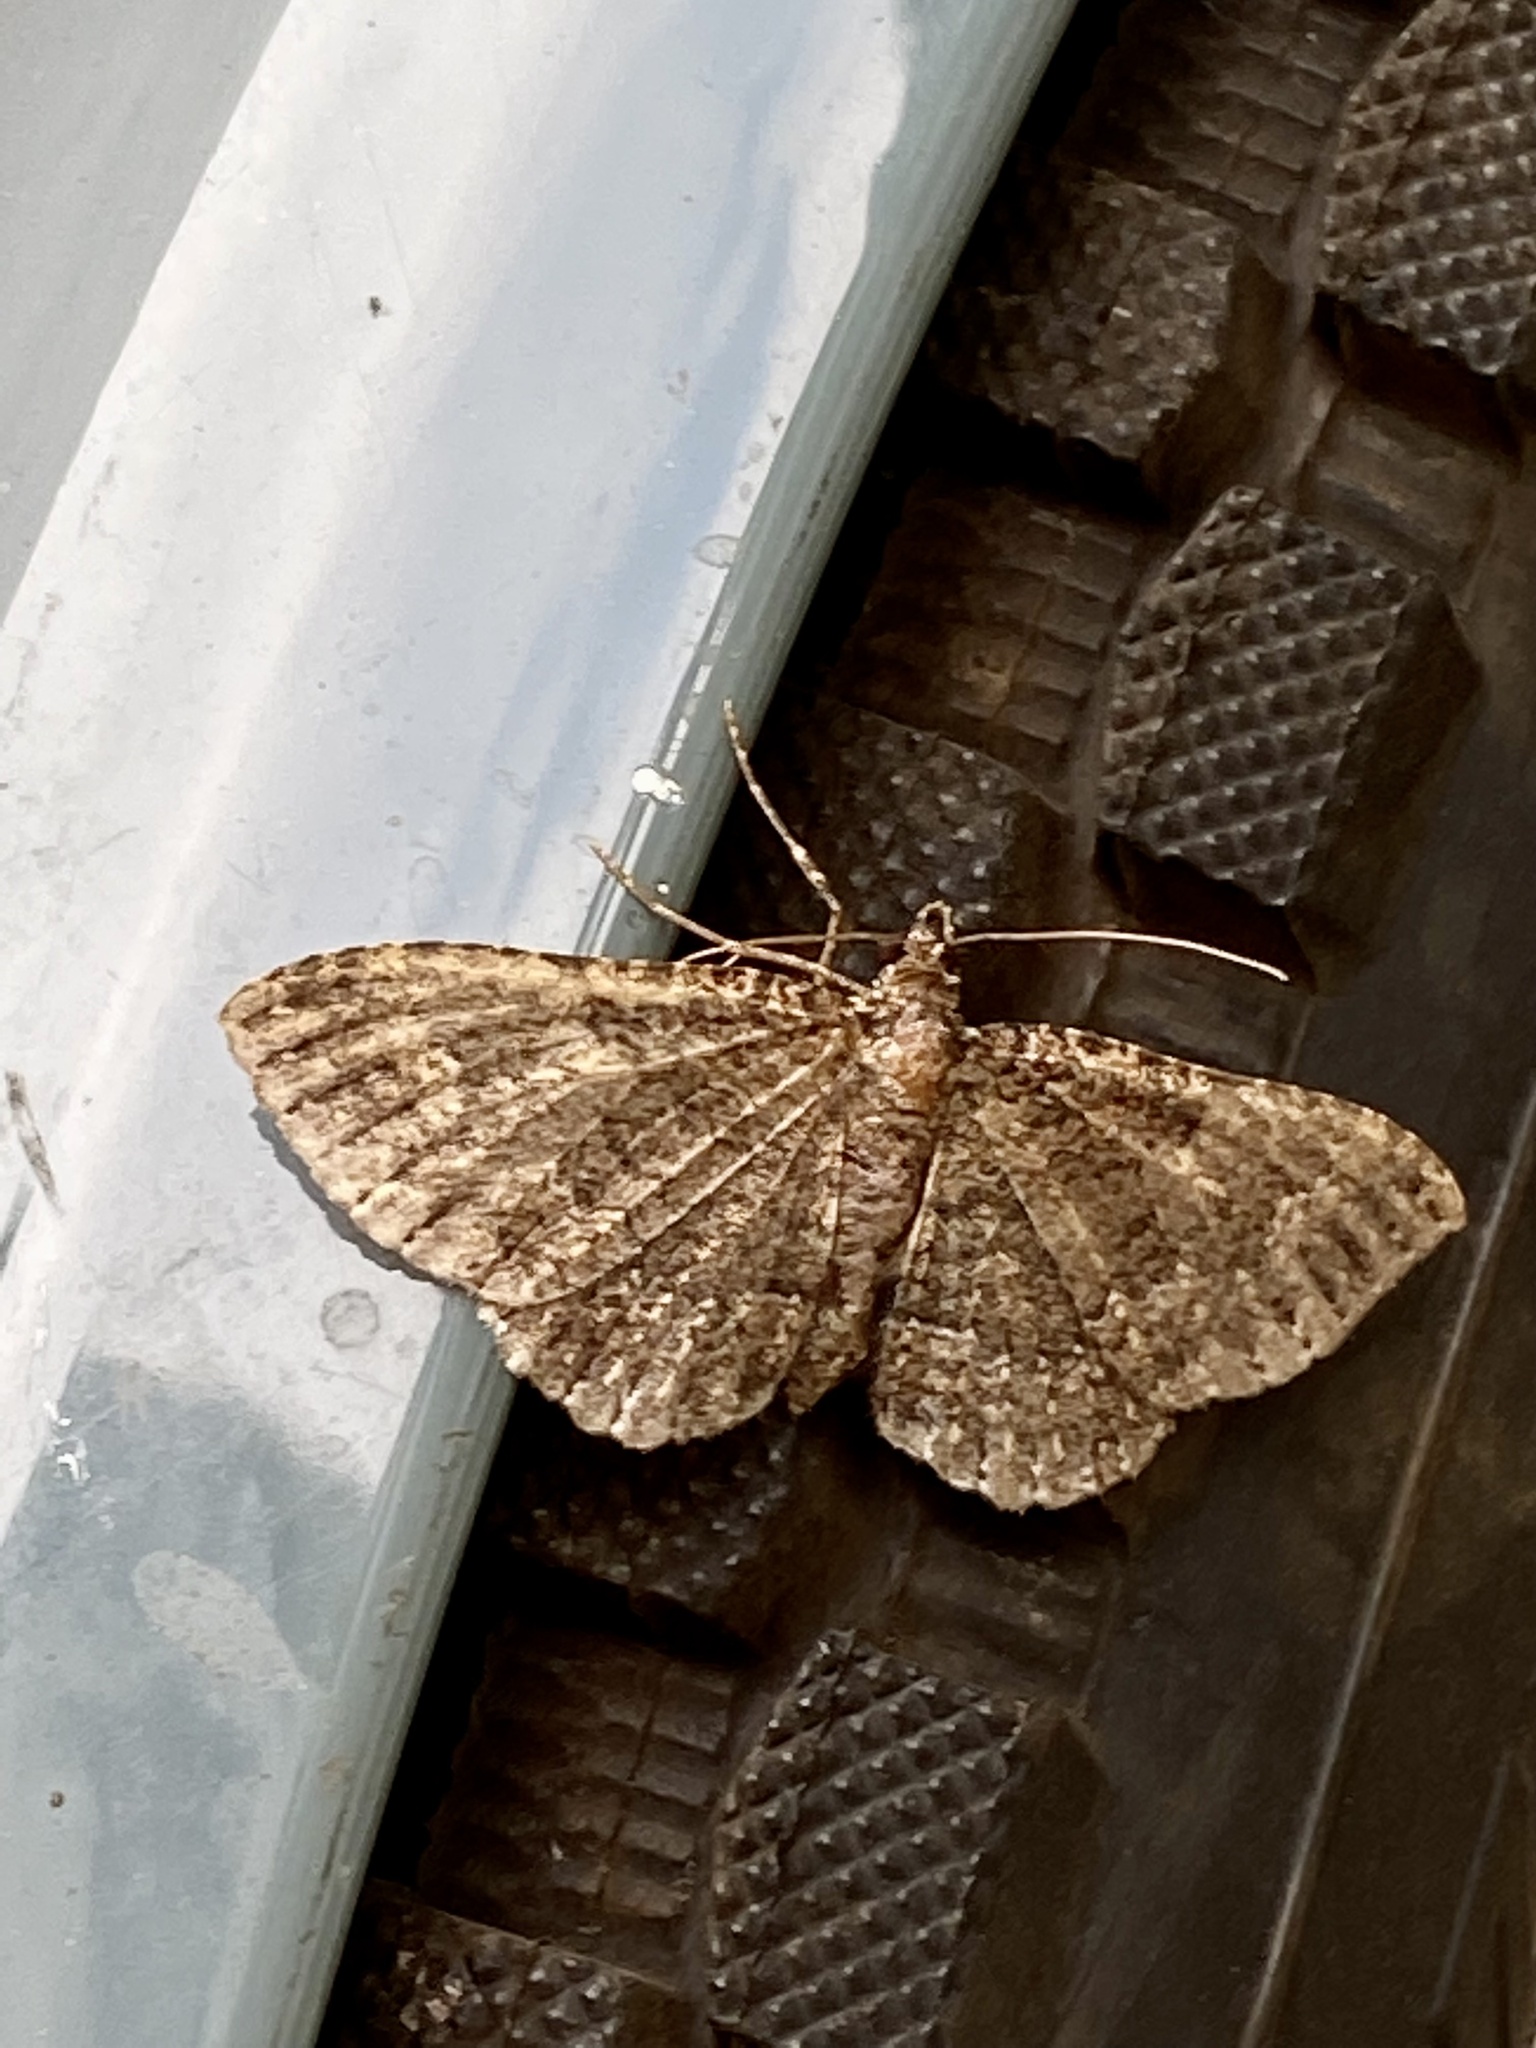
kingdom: Animalia
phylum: Arthropoda
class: Insecta
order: Lepidoptera
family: Geometridae
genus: Disclisioprocta
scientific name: Disclisioprocta stellata
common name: Somber carpet
